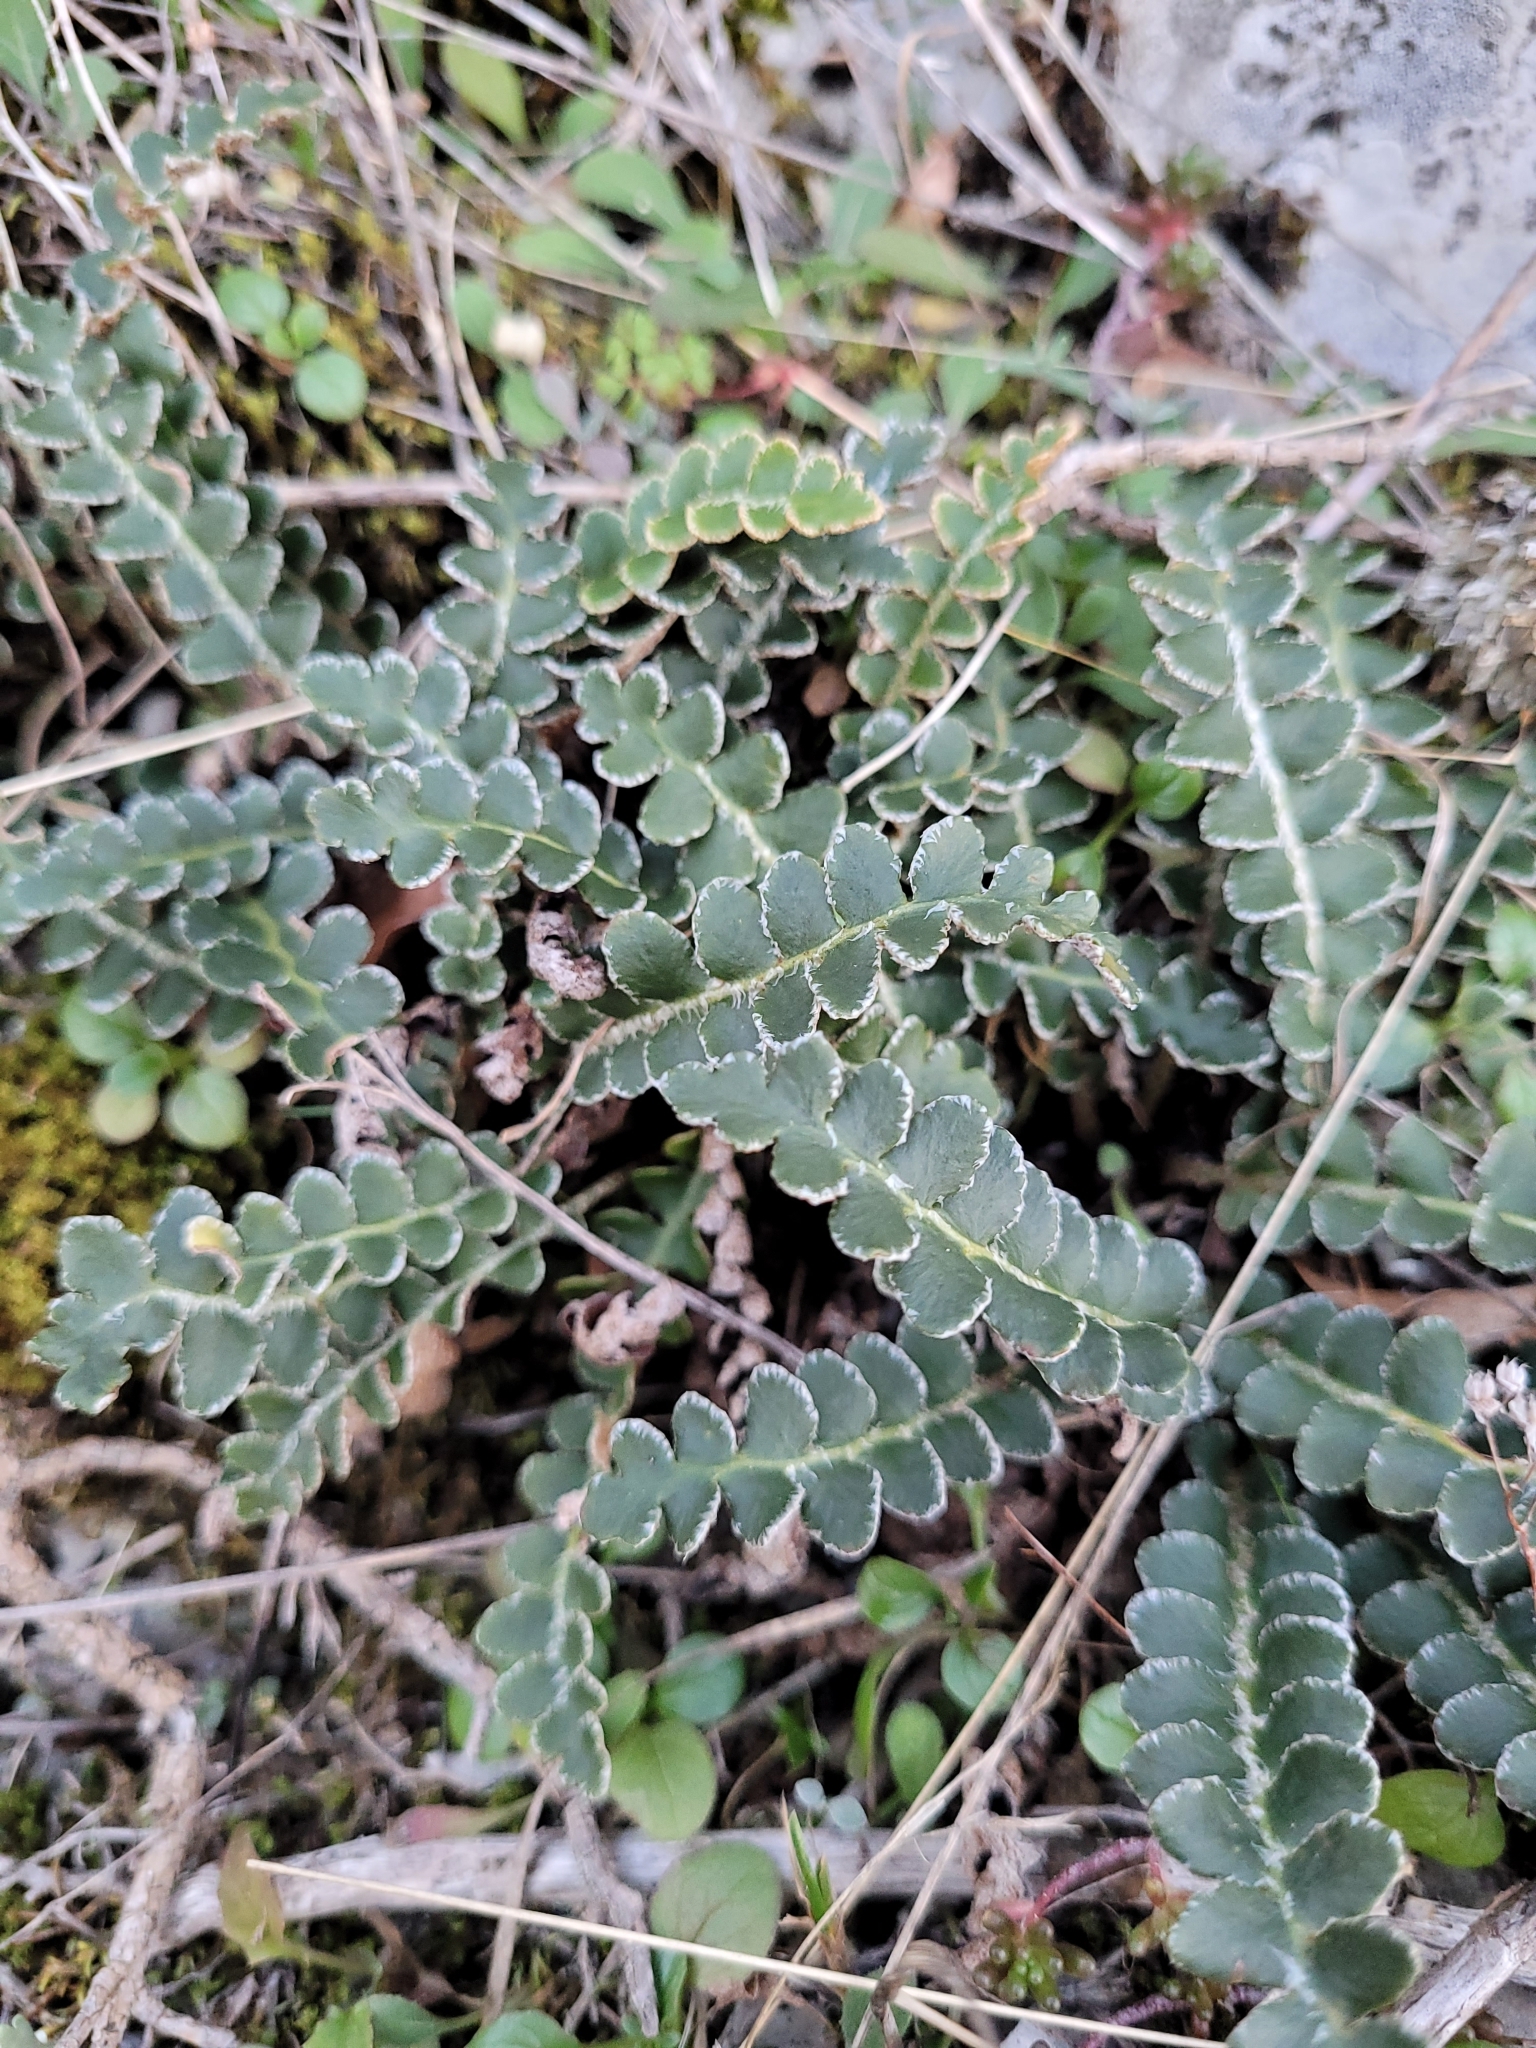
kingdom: Plantae
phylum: Tracheophyta
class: Polypodiopsida
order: Polypodiales
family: Aspleniaceae
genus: Asplenium
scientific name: Asplenium ceterach
